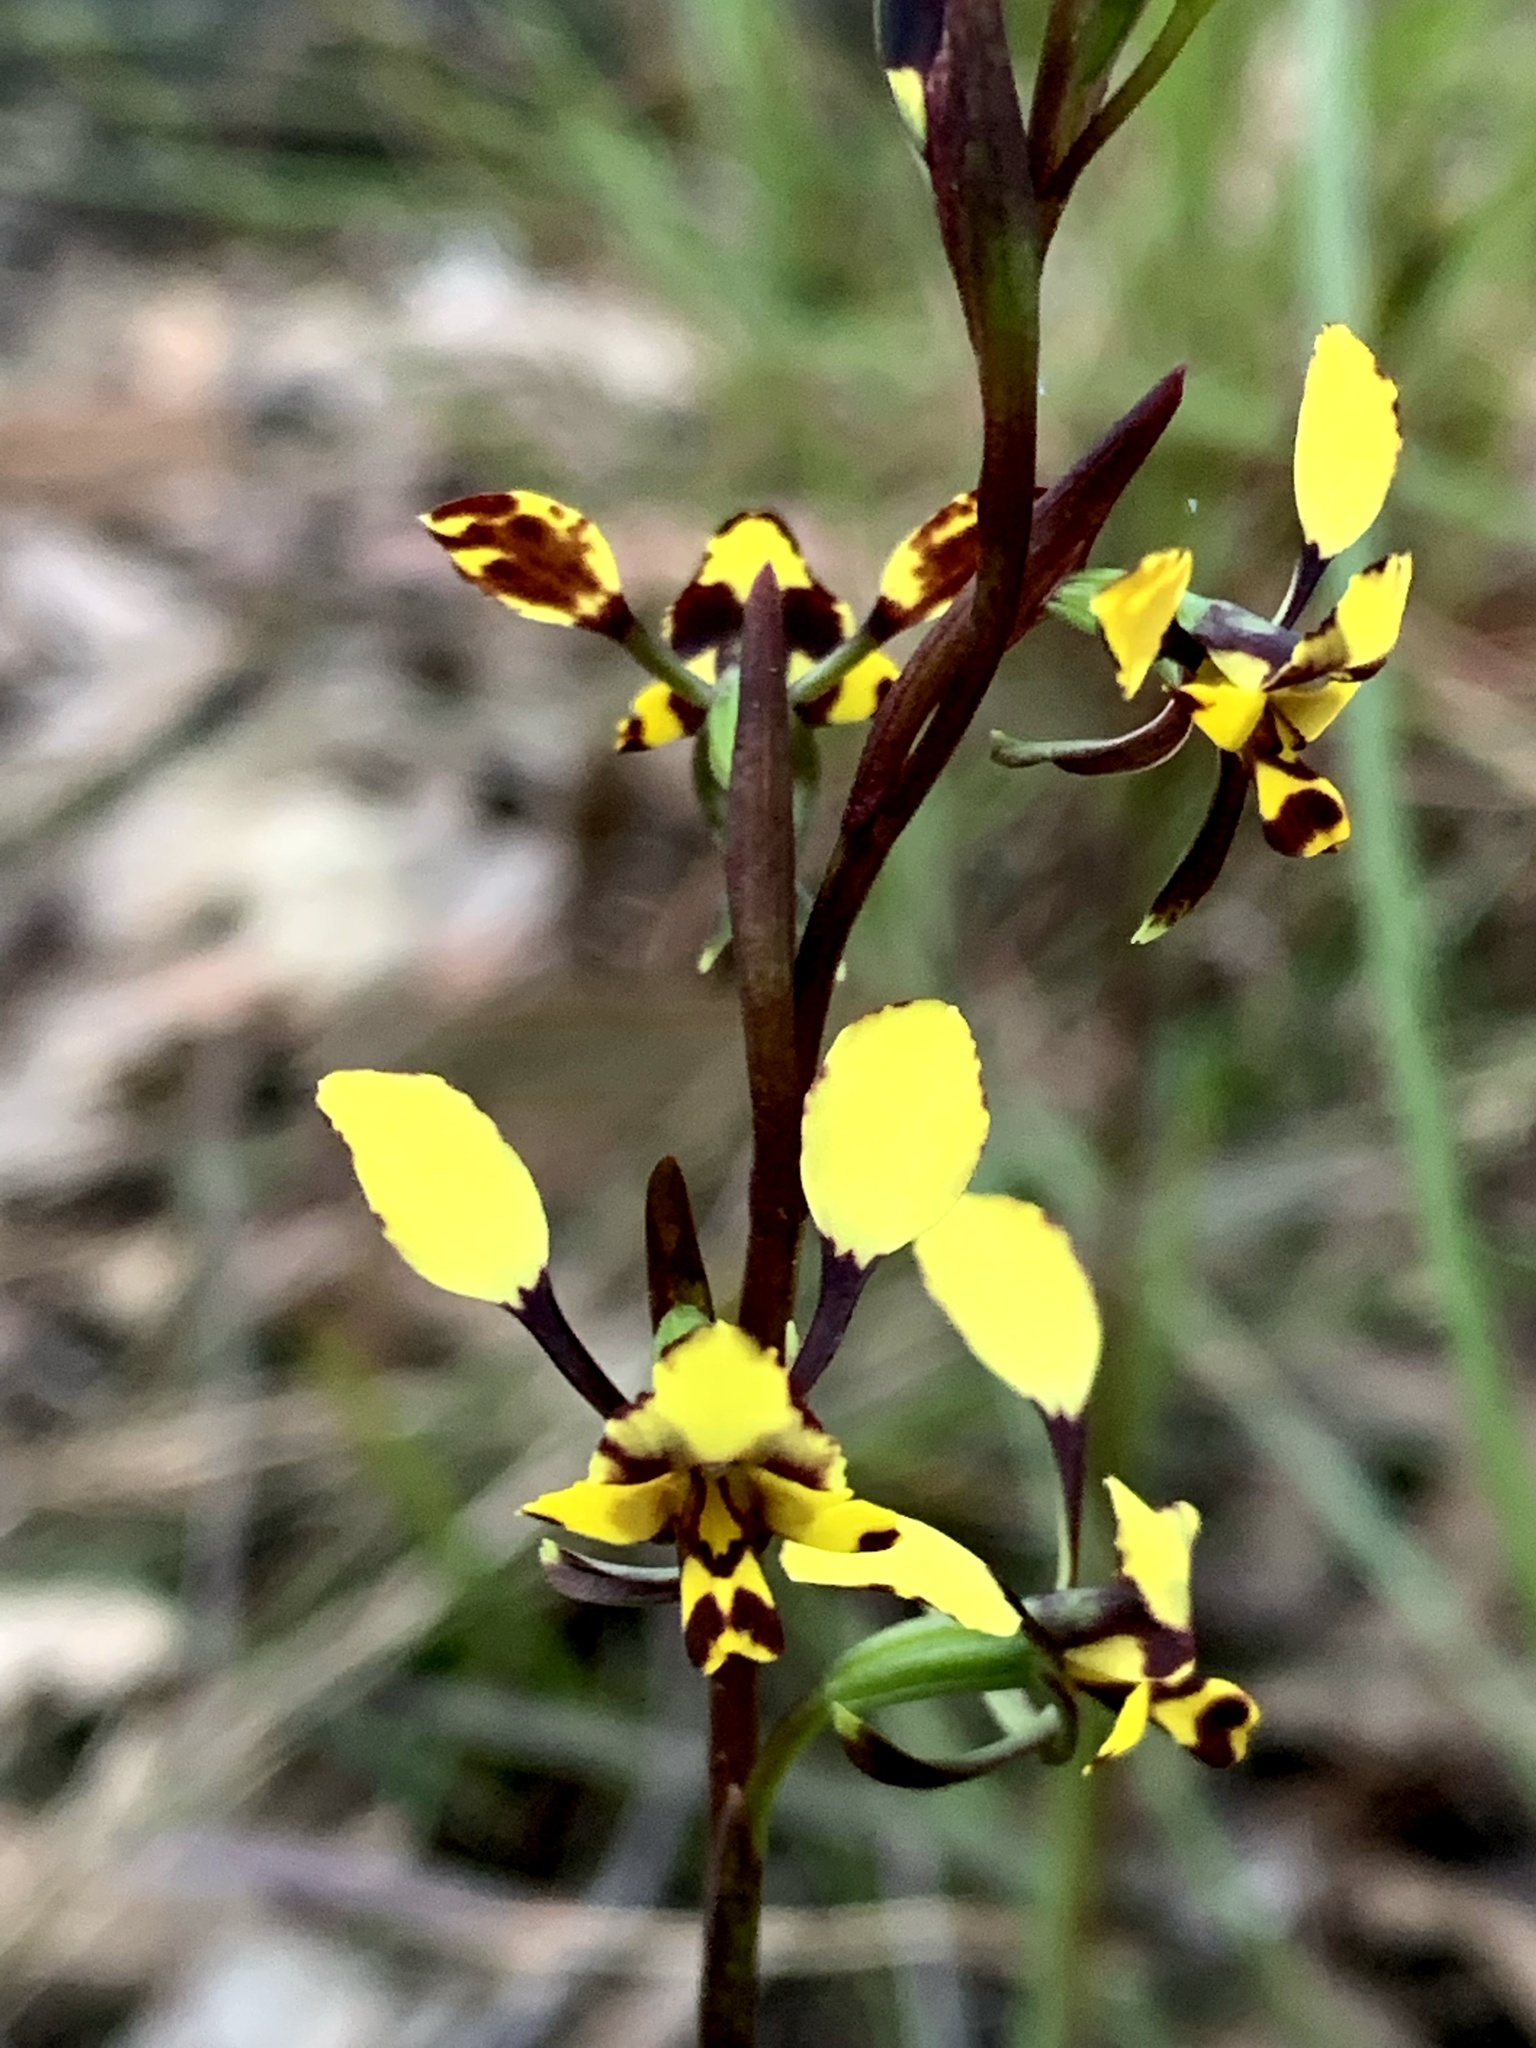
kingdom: Plantae
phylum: Tracheophyta
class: Liliopsida
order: Asparagales
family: Orchidaceae
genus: Diuris
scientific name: Diuris maculata
